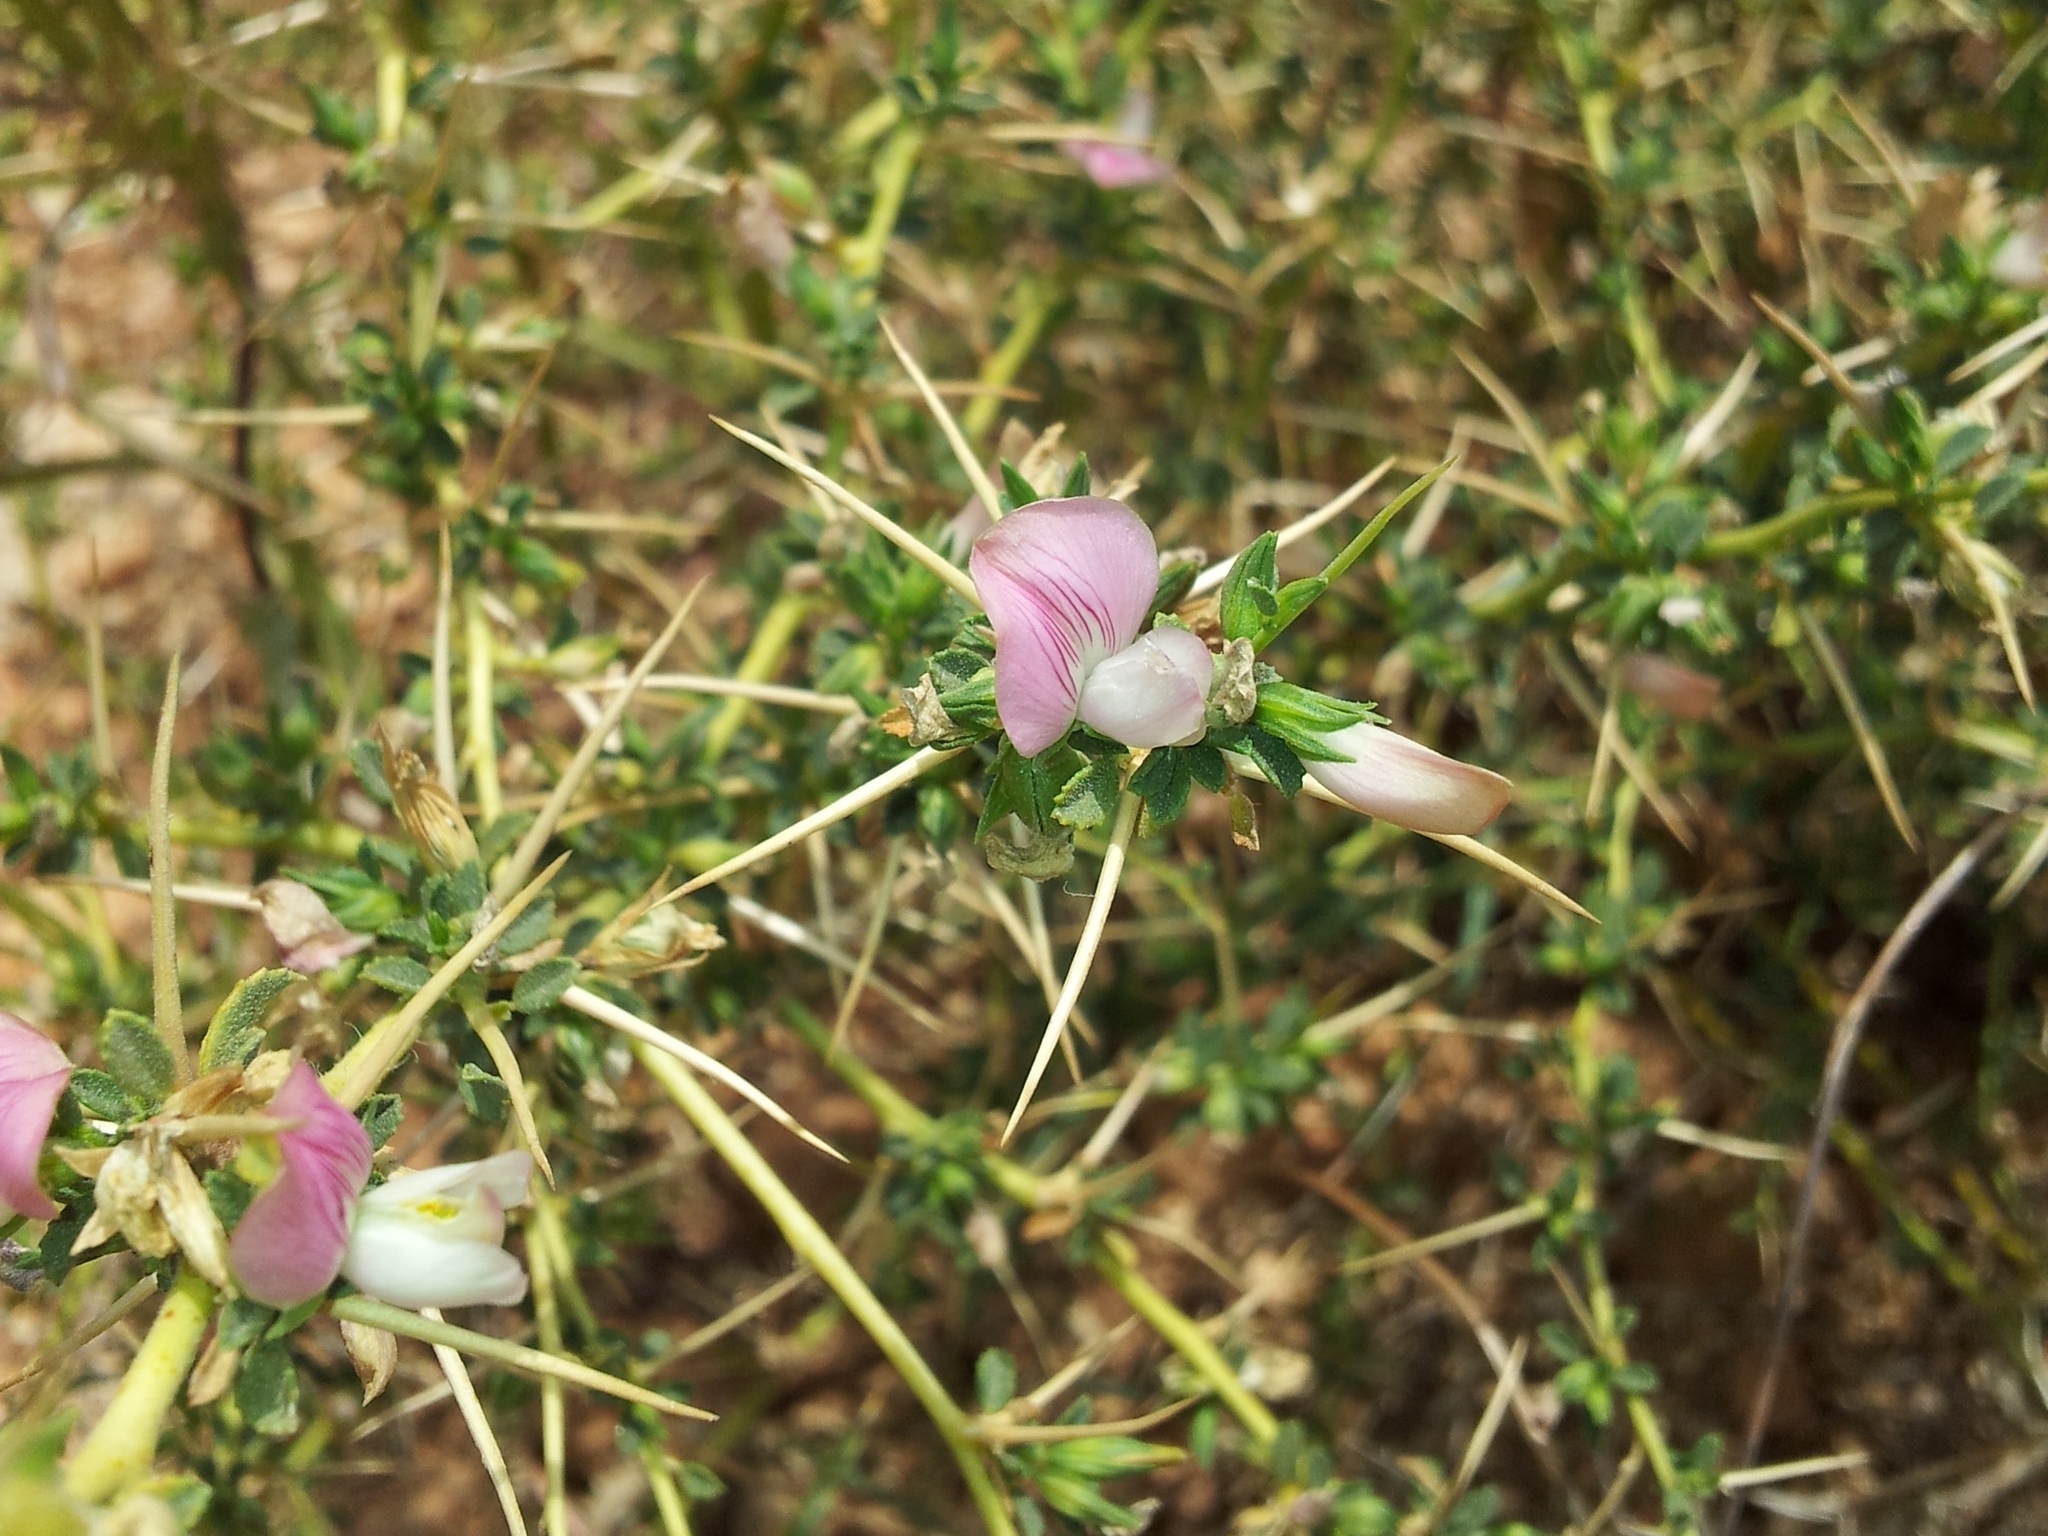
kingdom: Plantae
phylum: Tracheophyta
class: Magnoliopsida
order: Fabales
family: Fabaceae
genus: Ononis
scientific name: Ononis spinosa
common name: Spiny restharrow
